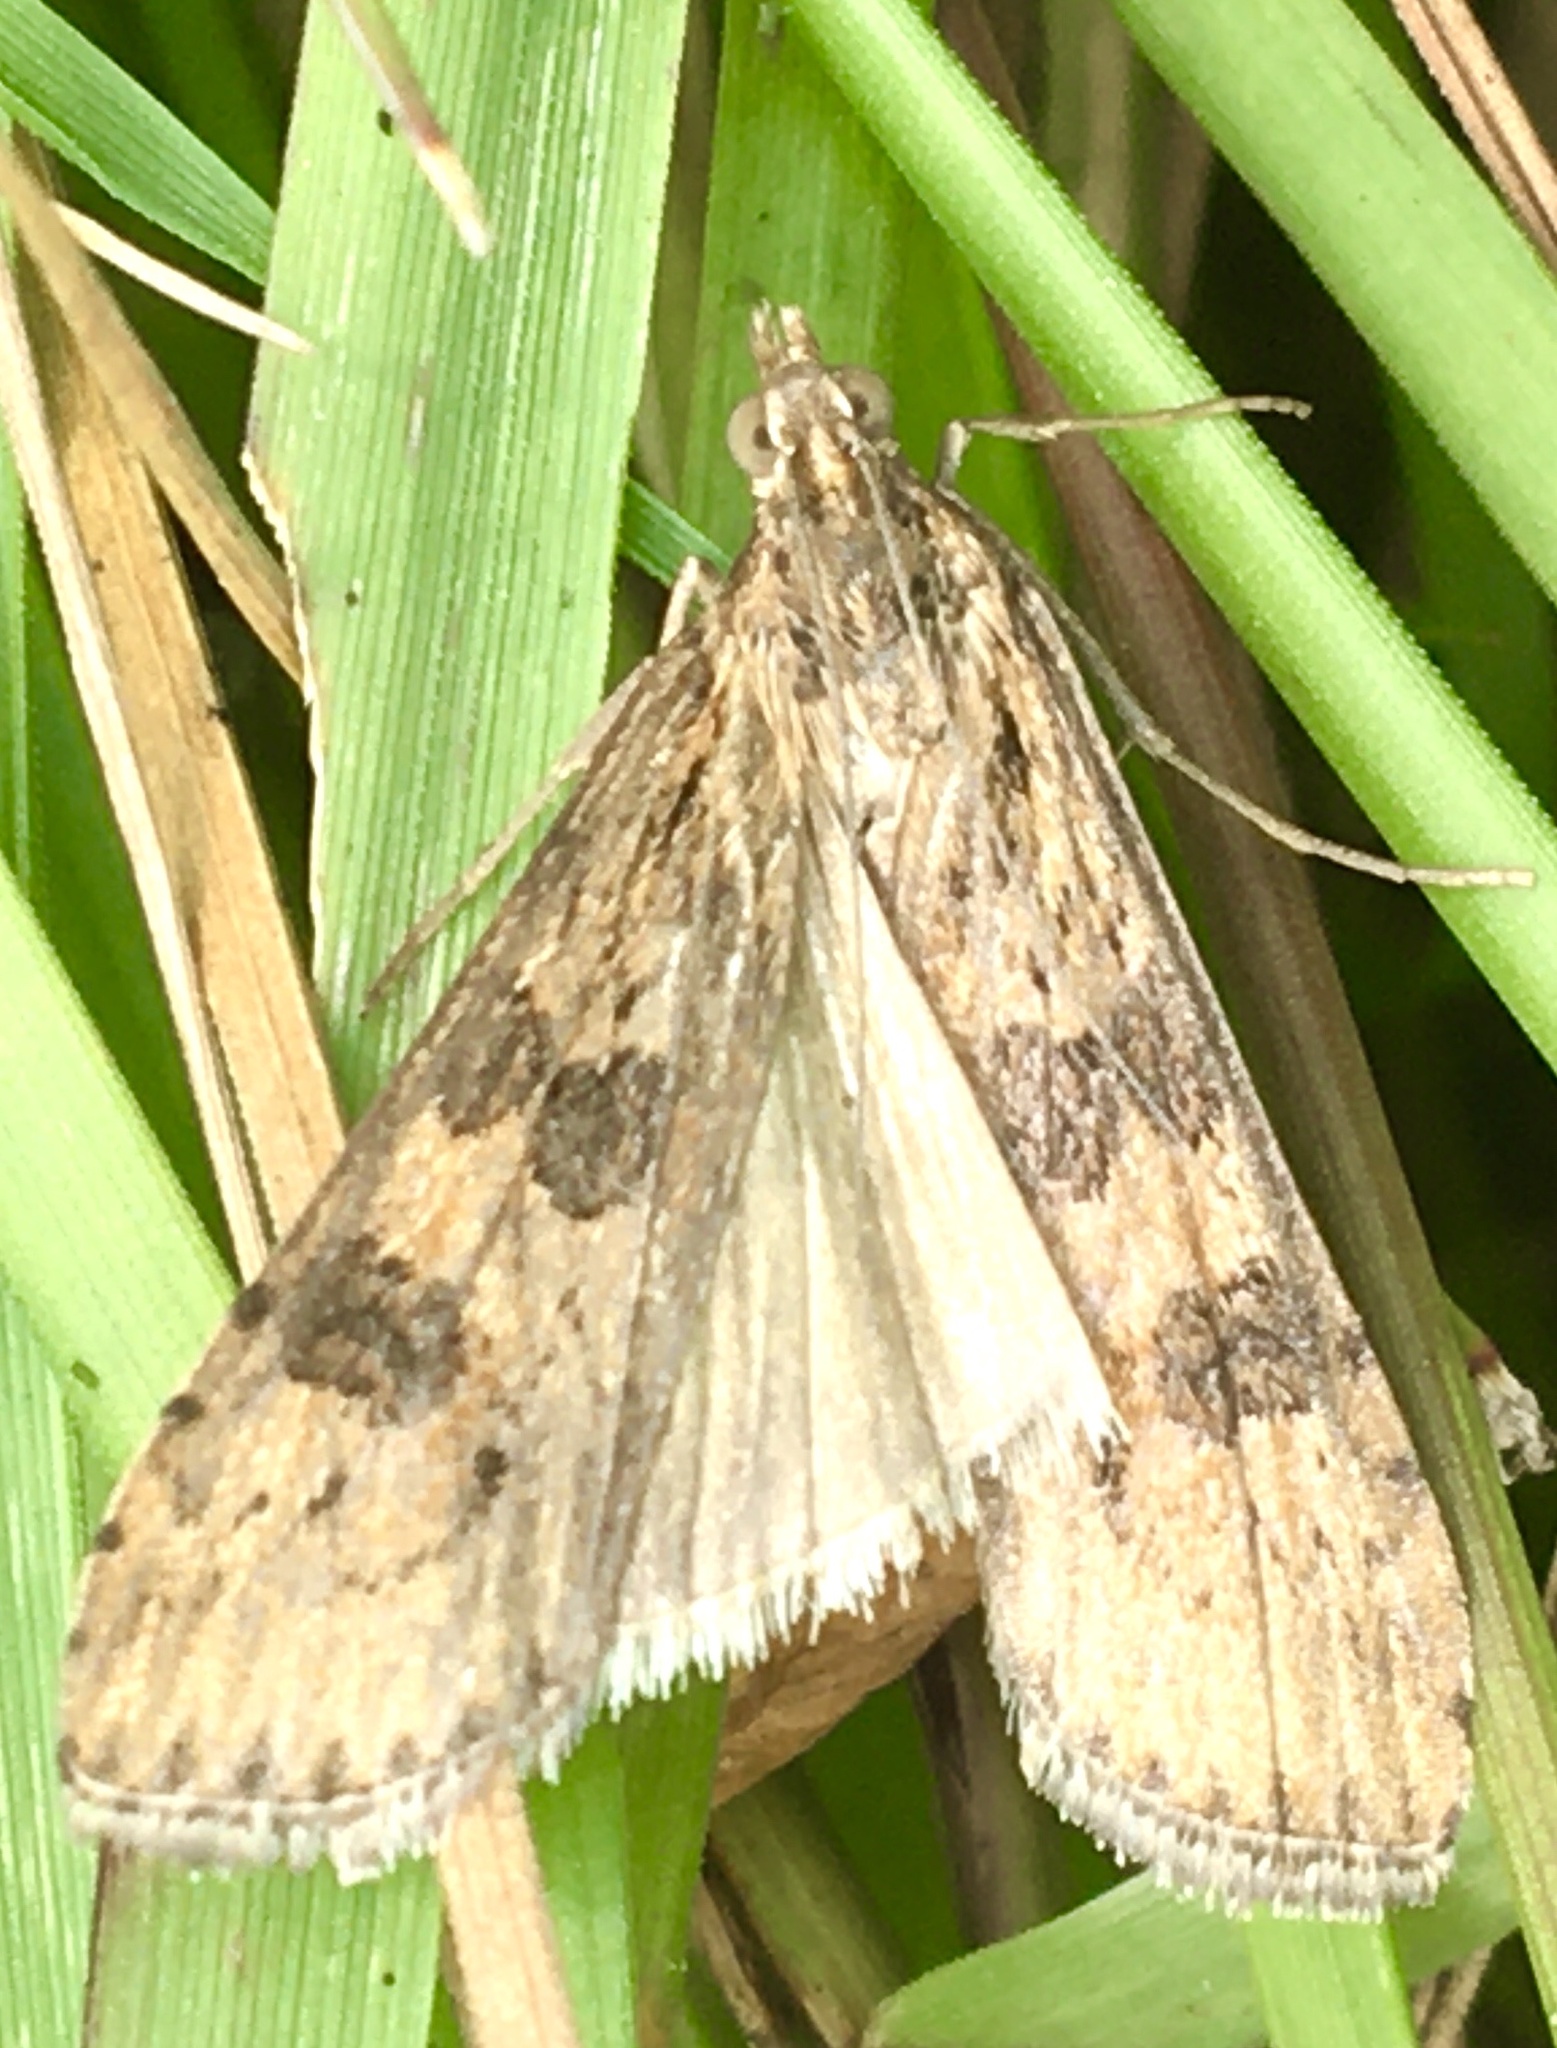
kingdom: Animalia
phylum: Arthropoda
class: Insecta
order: Lepidoptera
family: Crambidae
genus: Nomophila
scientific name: Nomophila noctuella
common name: Rush veneer
